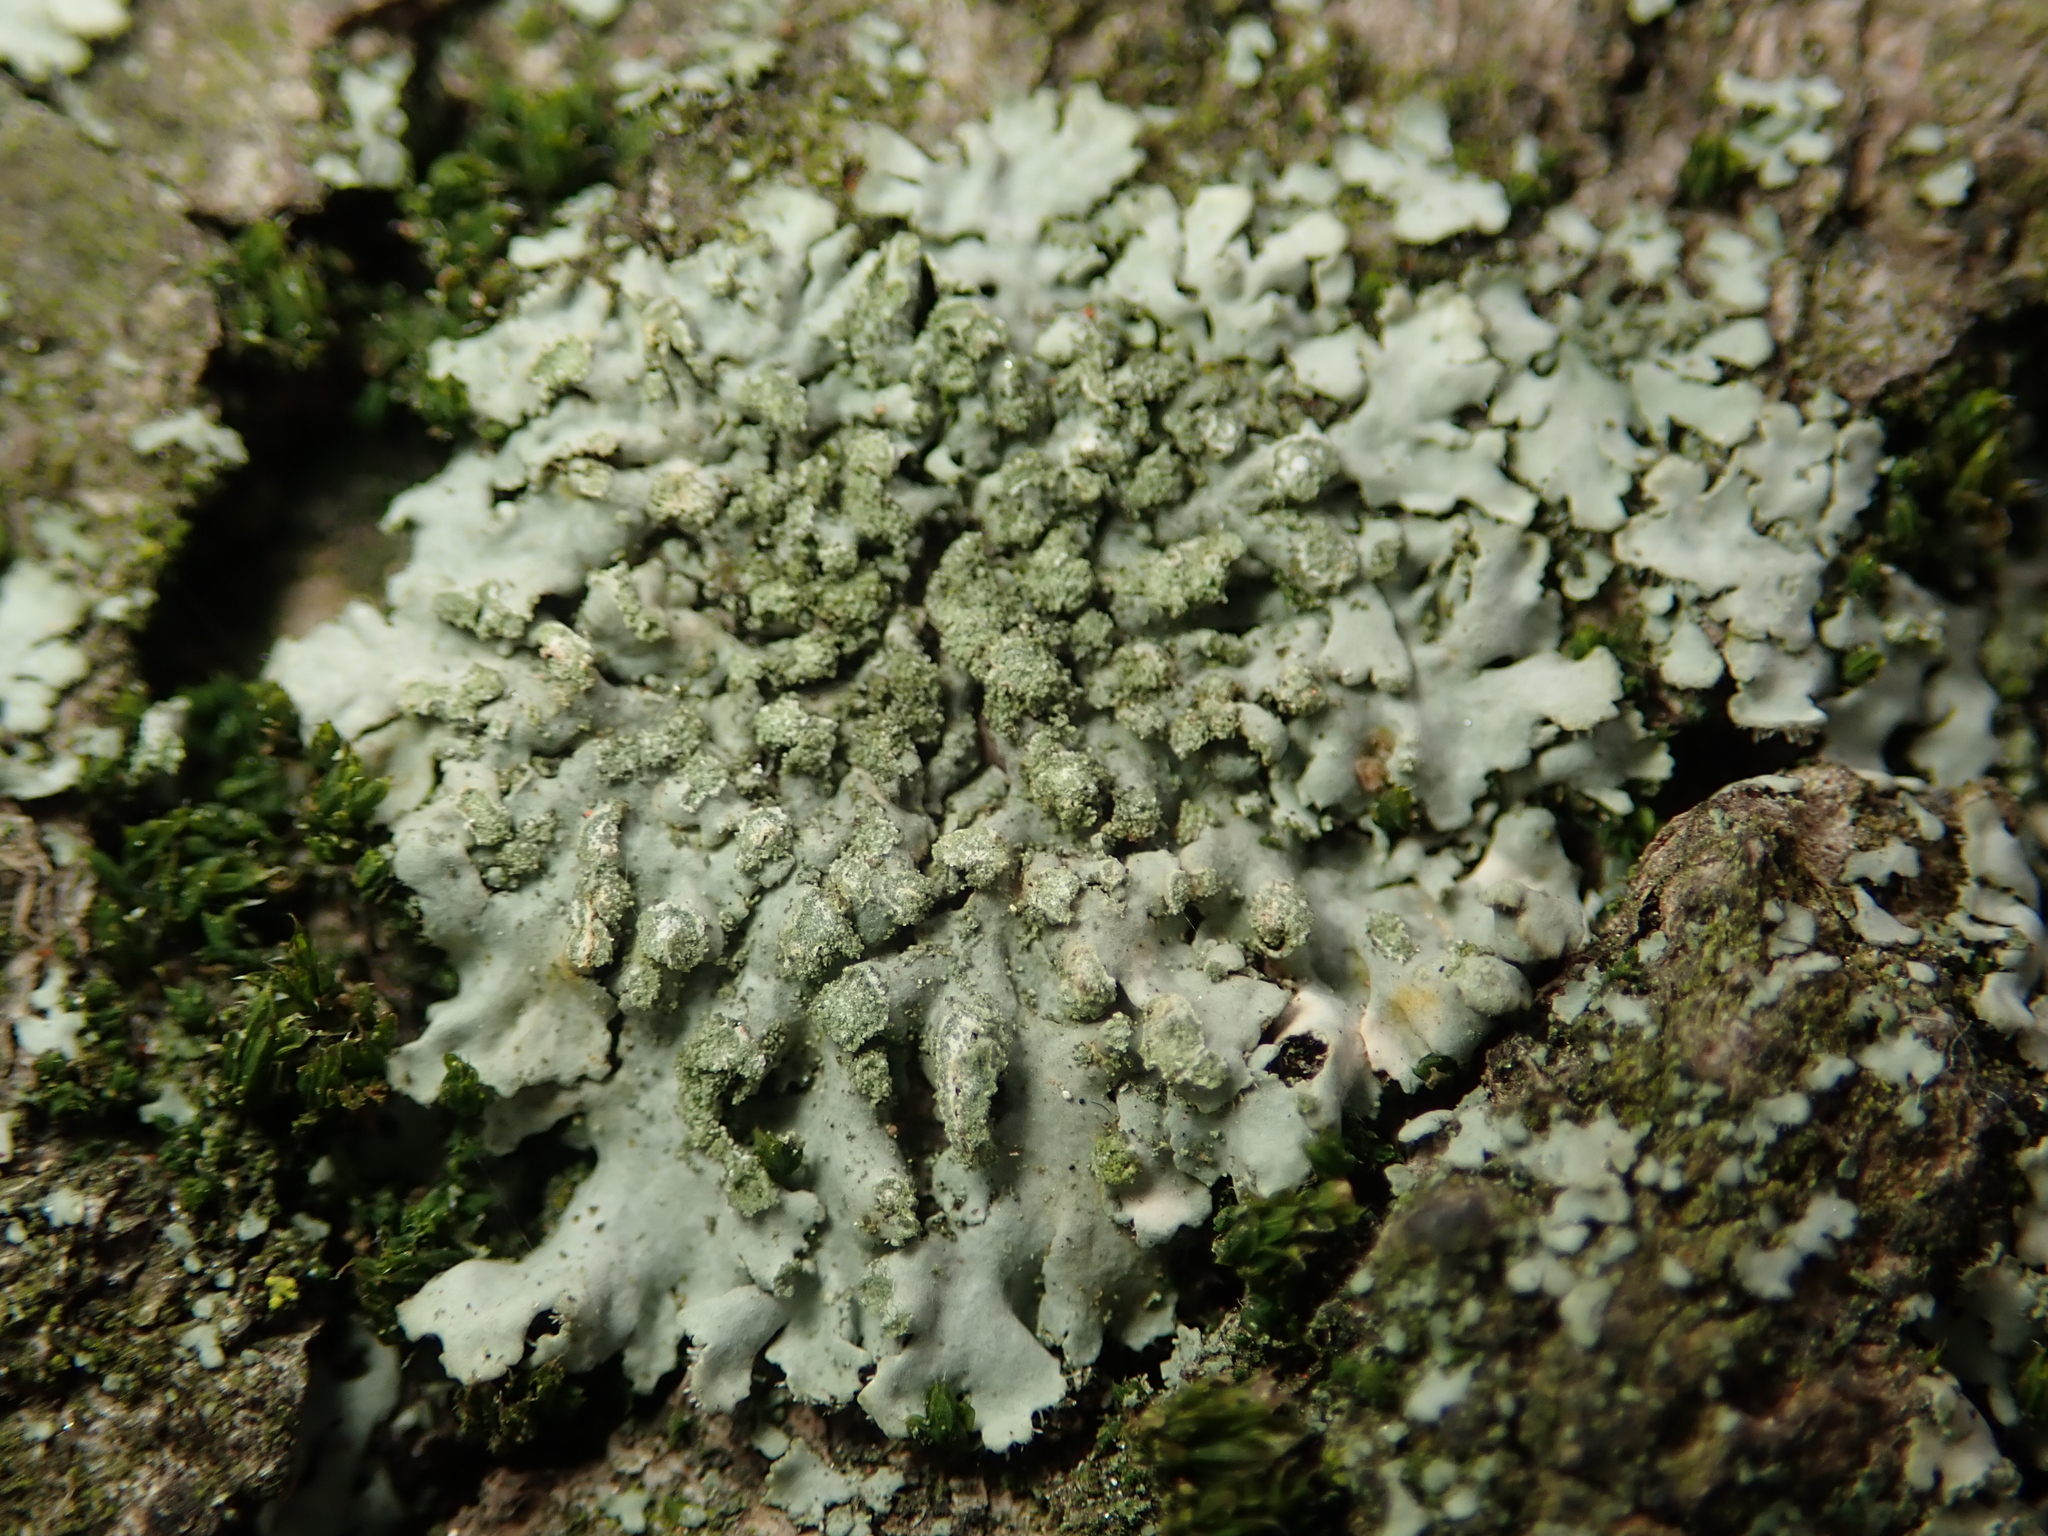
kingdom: Fungi
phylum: Ascomycota
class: Lecanoromycetes
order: Caliciales
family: Physciaceae
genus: Phaeophyscia
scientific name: Phaeophyscia orbicularis
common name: Mealy shadow lichen
